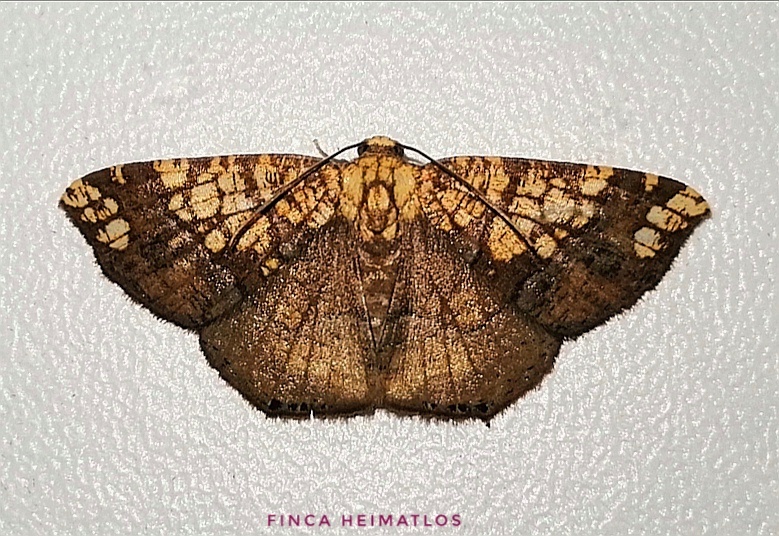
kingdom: Animalia
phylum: Arthropoda
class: Insecta
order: Lepidoptera
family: Geometridae
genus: Nematocampa
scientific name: Nematocampa completa
